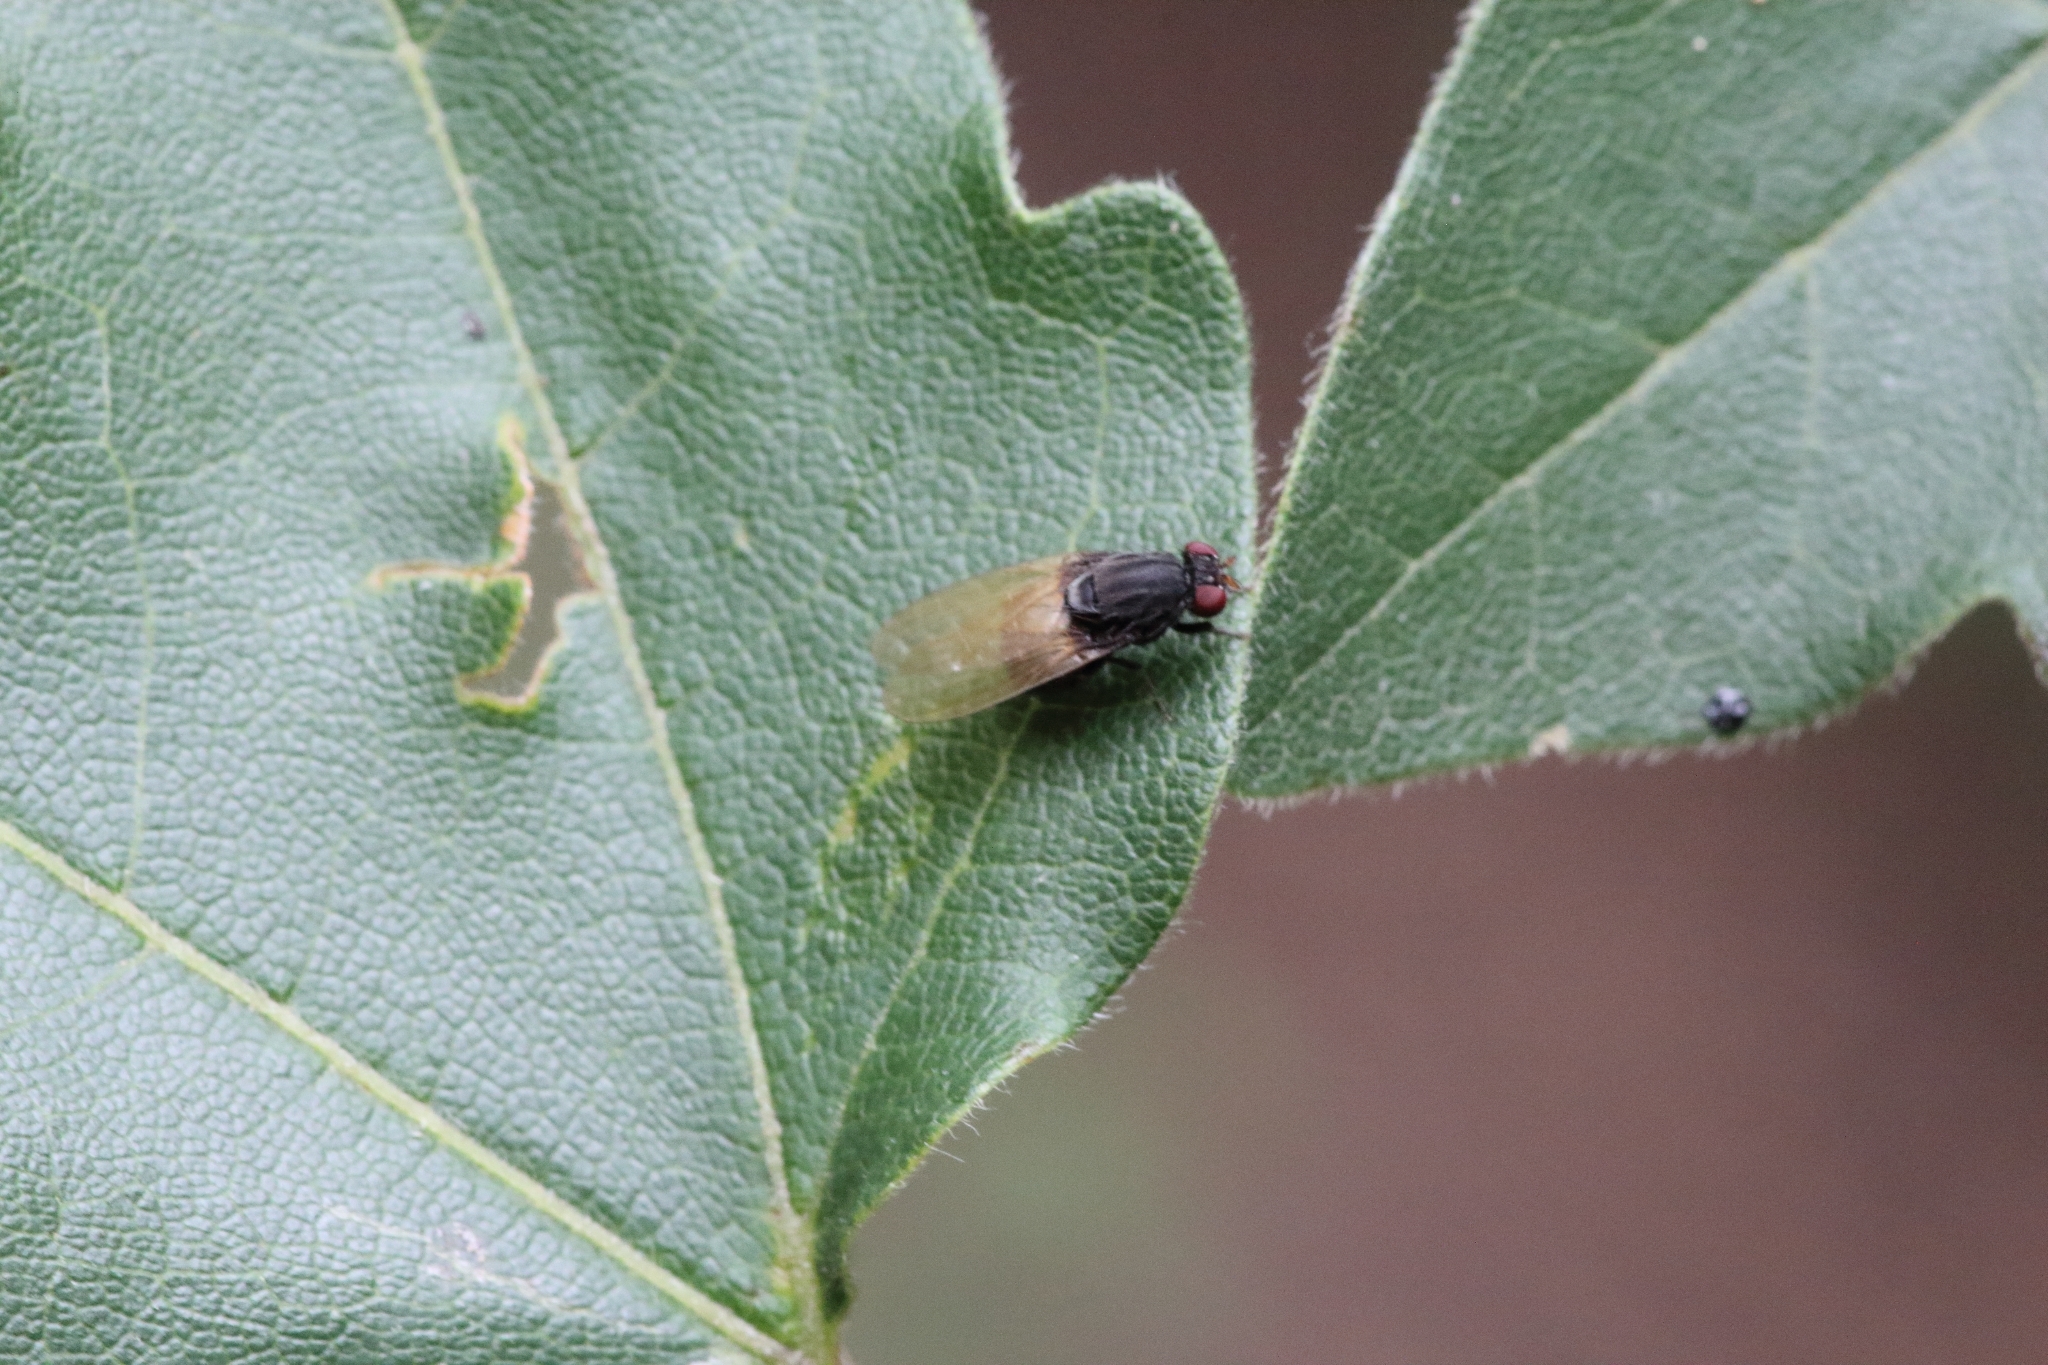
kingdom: Animalia
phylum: Arthropoda
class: Insecta
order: Diptera
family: Lauxaniidae
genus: Minettia
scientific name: Minettia longipennis
